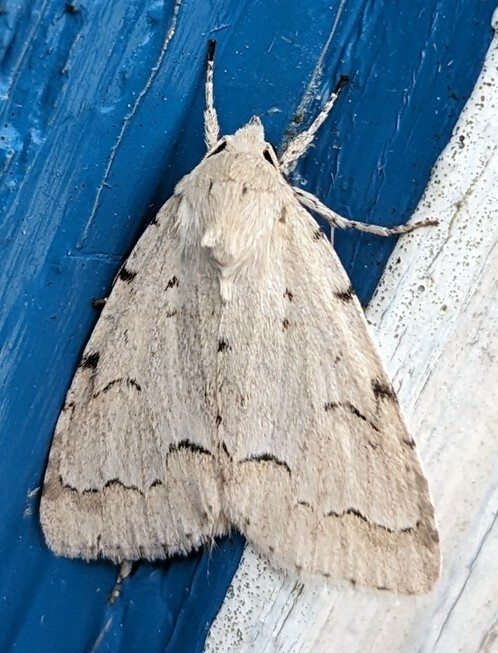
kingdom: Animalia
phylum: Arthropoda
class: Insecta
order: Lepidoptera
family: Noctuidae
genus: Acronicta
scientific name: Acronicta innotata
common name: Unmarked dagger
